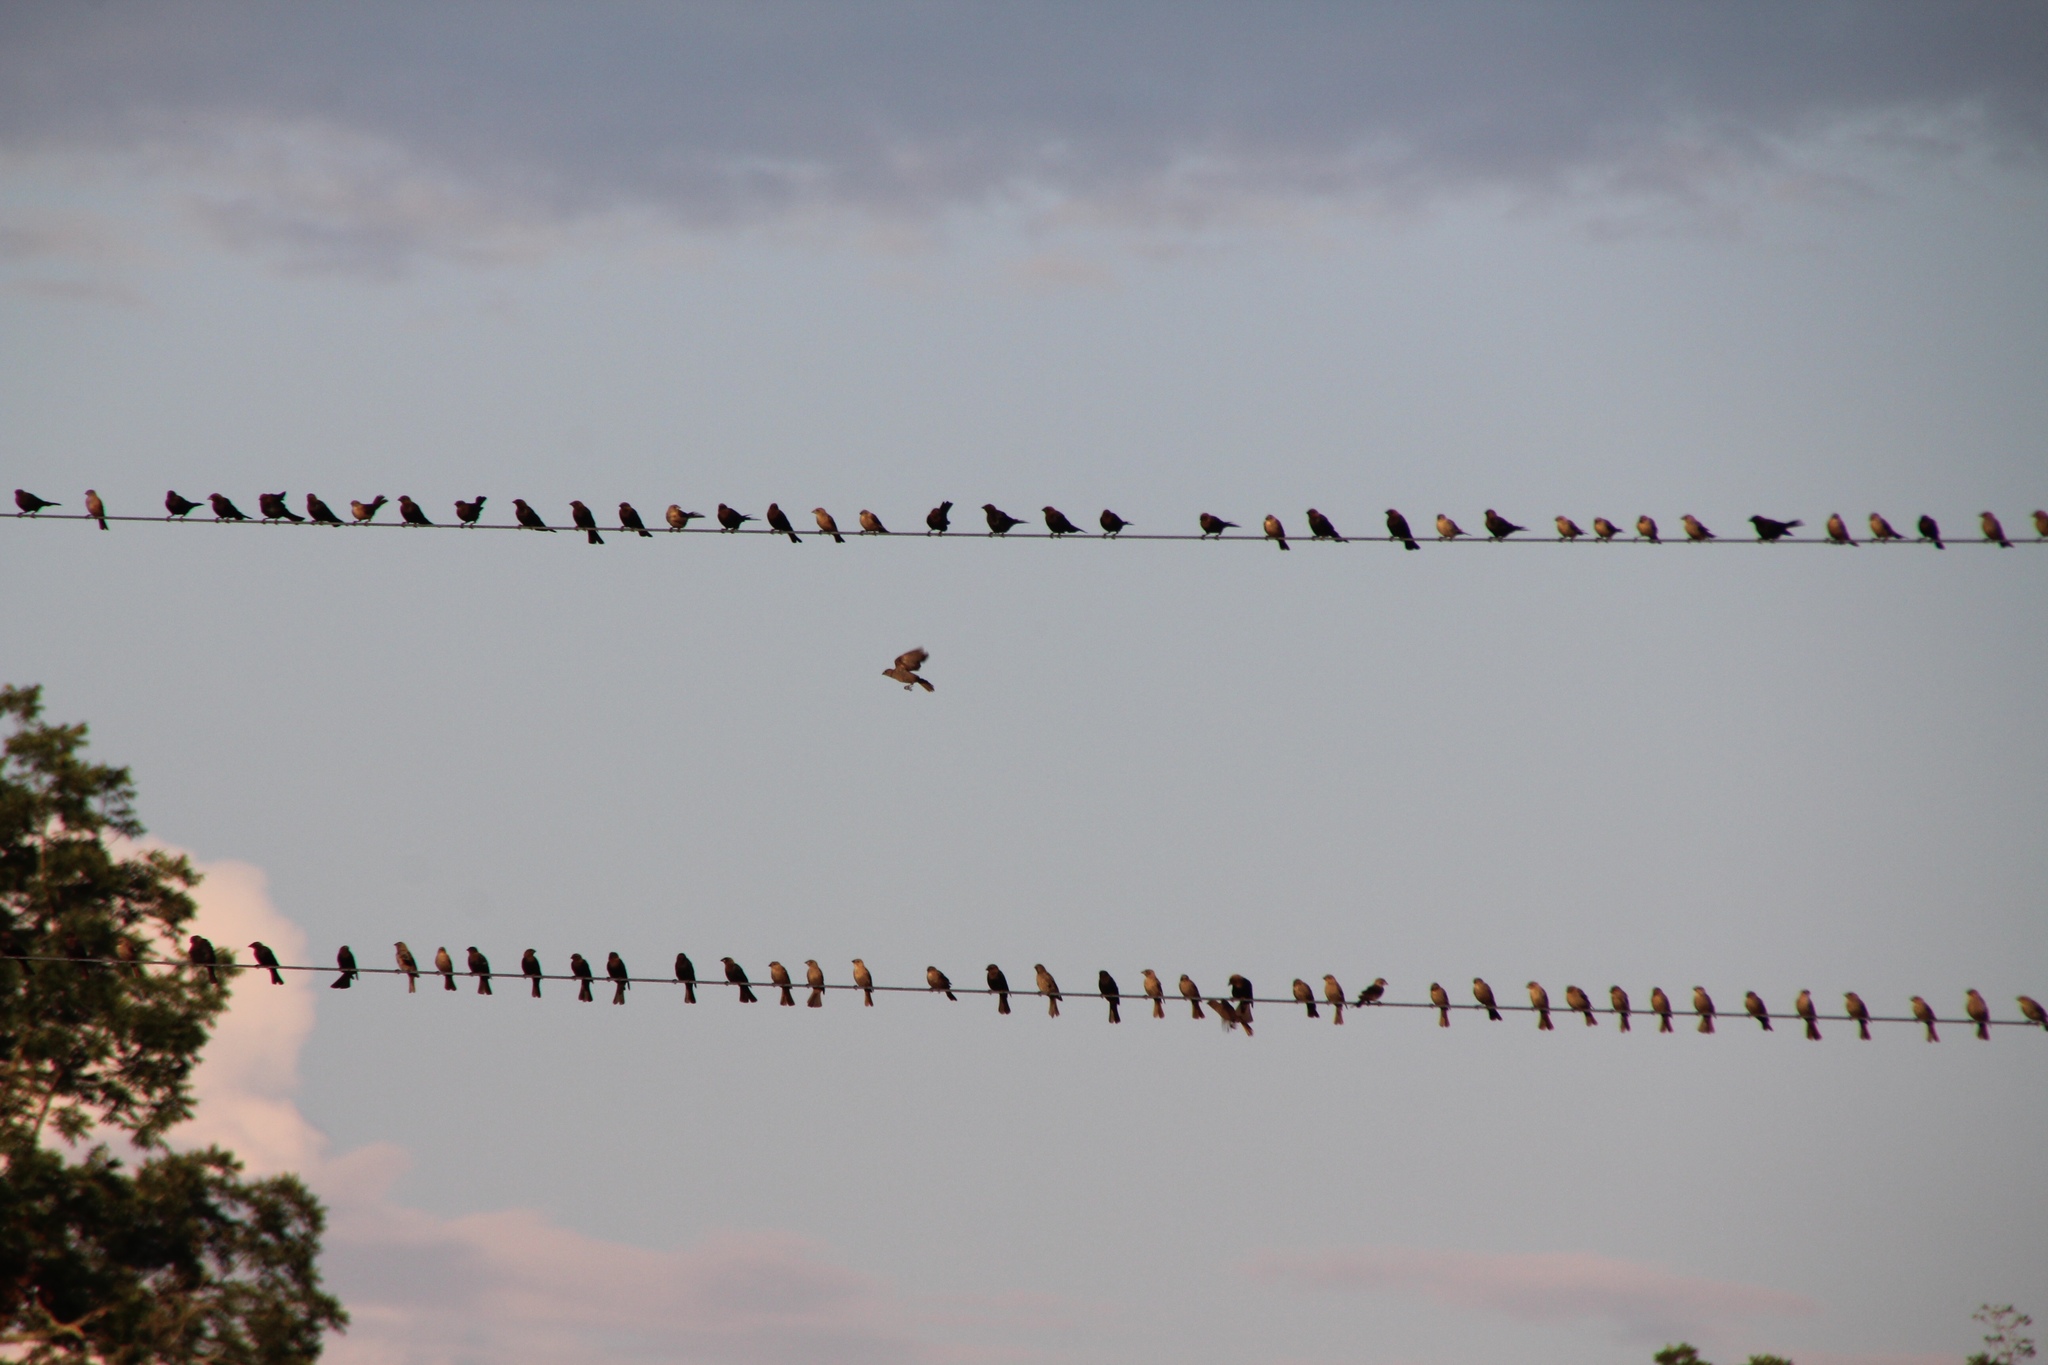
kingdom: Animalia
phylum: Chordata
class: Aves
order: Passeriformes
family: Icteridae
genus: Molothrus
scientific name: Molothrus ater
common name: Brown-headed cowbird
